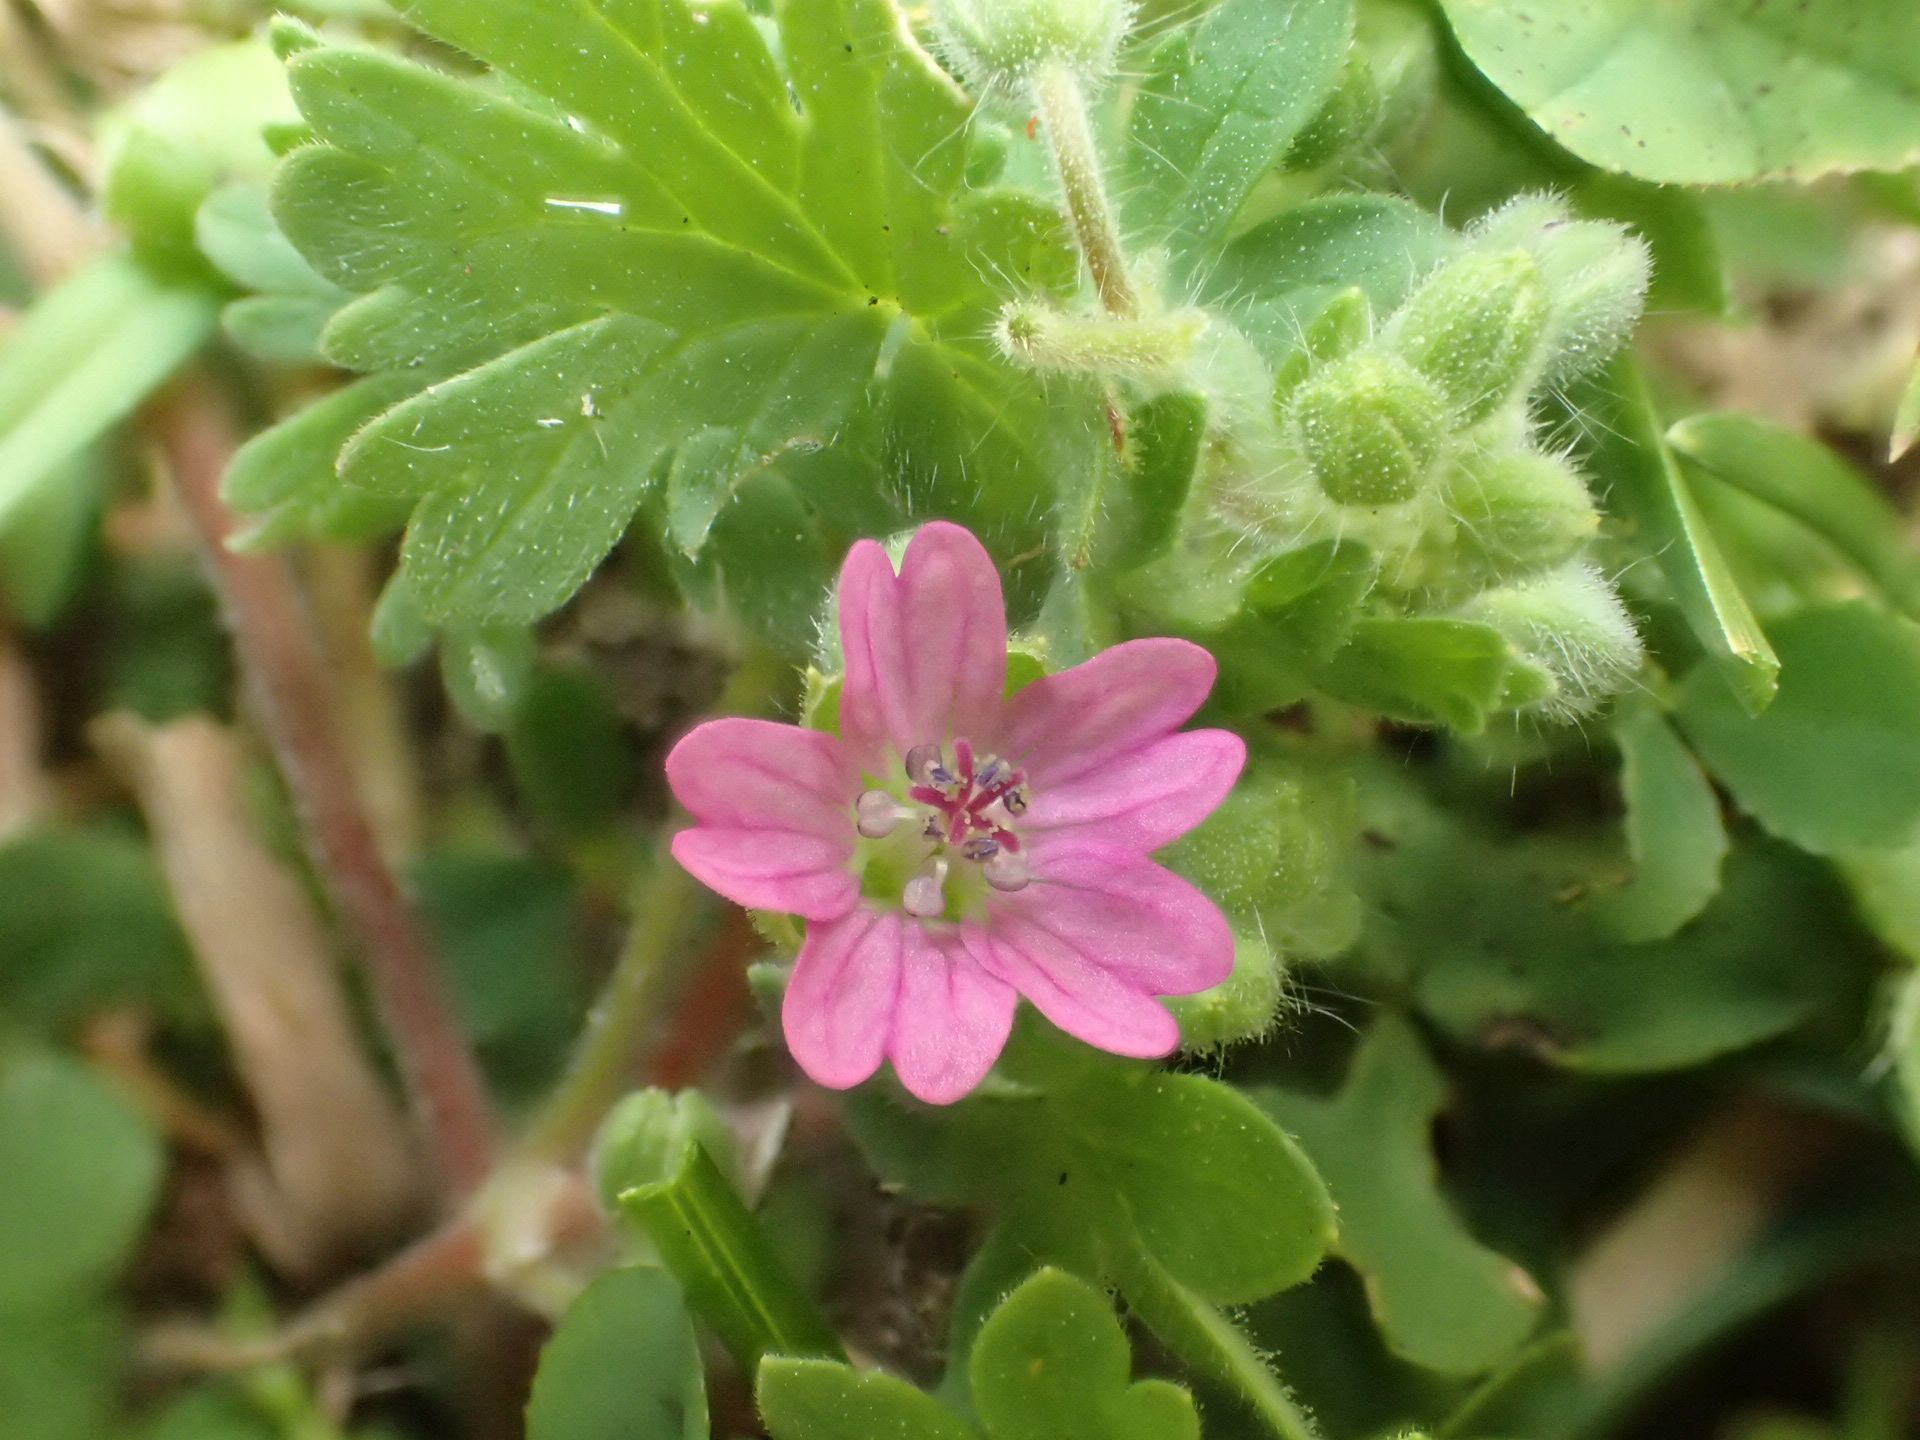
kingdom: Plantae
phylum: Tracheophyta
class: Magnoliopsida
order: Geraniales
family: Geraniaceae
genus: Geranium
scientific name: Geranium molle
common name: Dove's-foot crane's-bill
